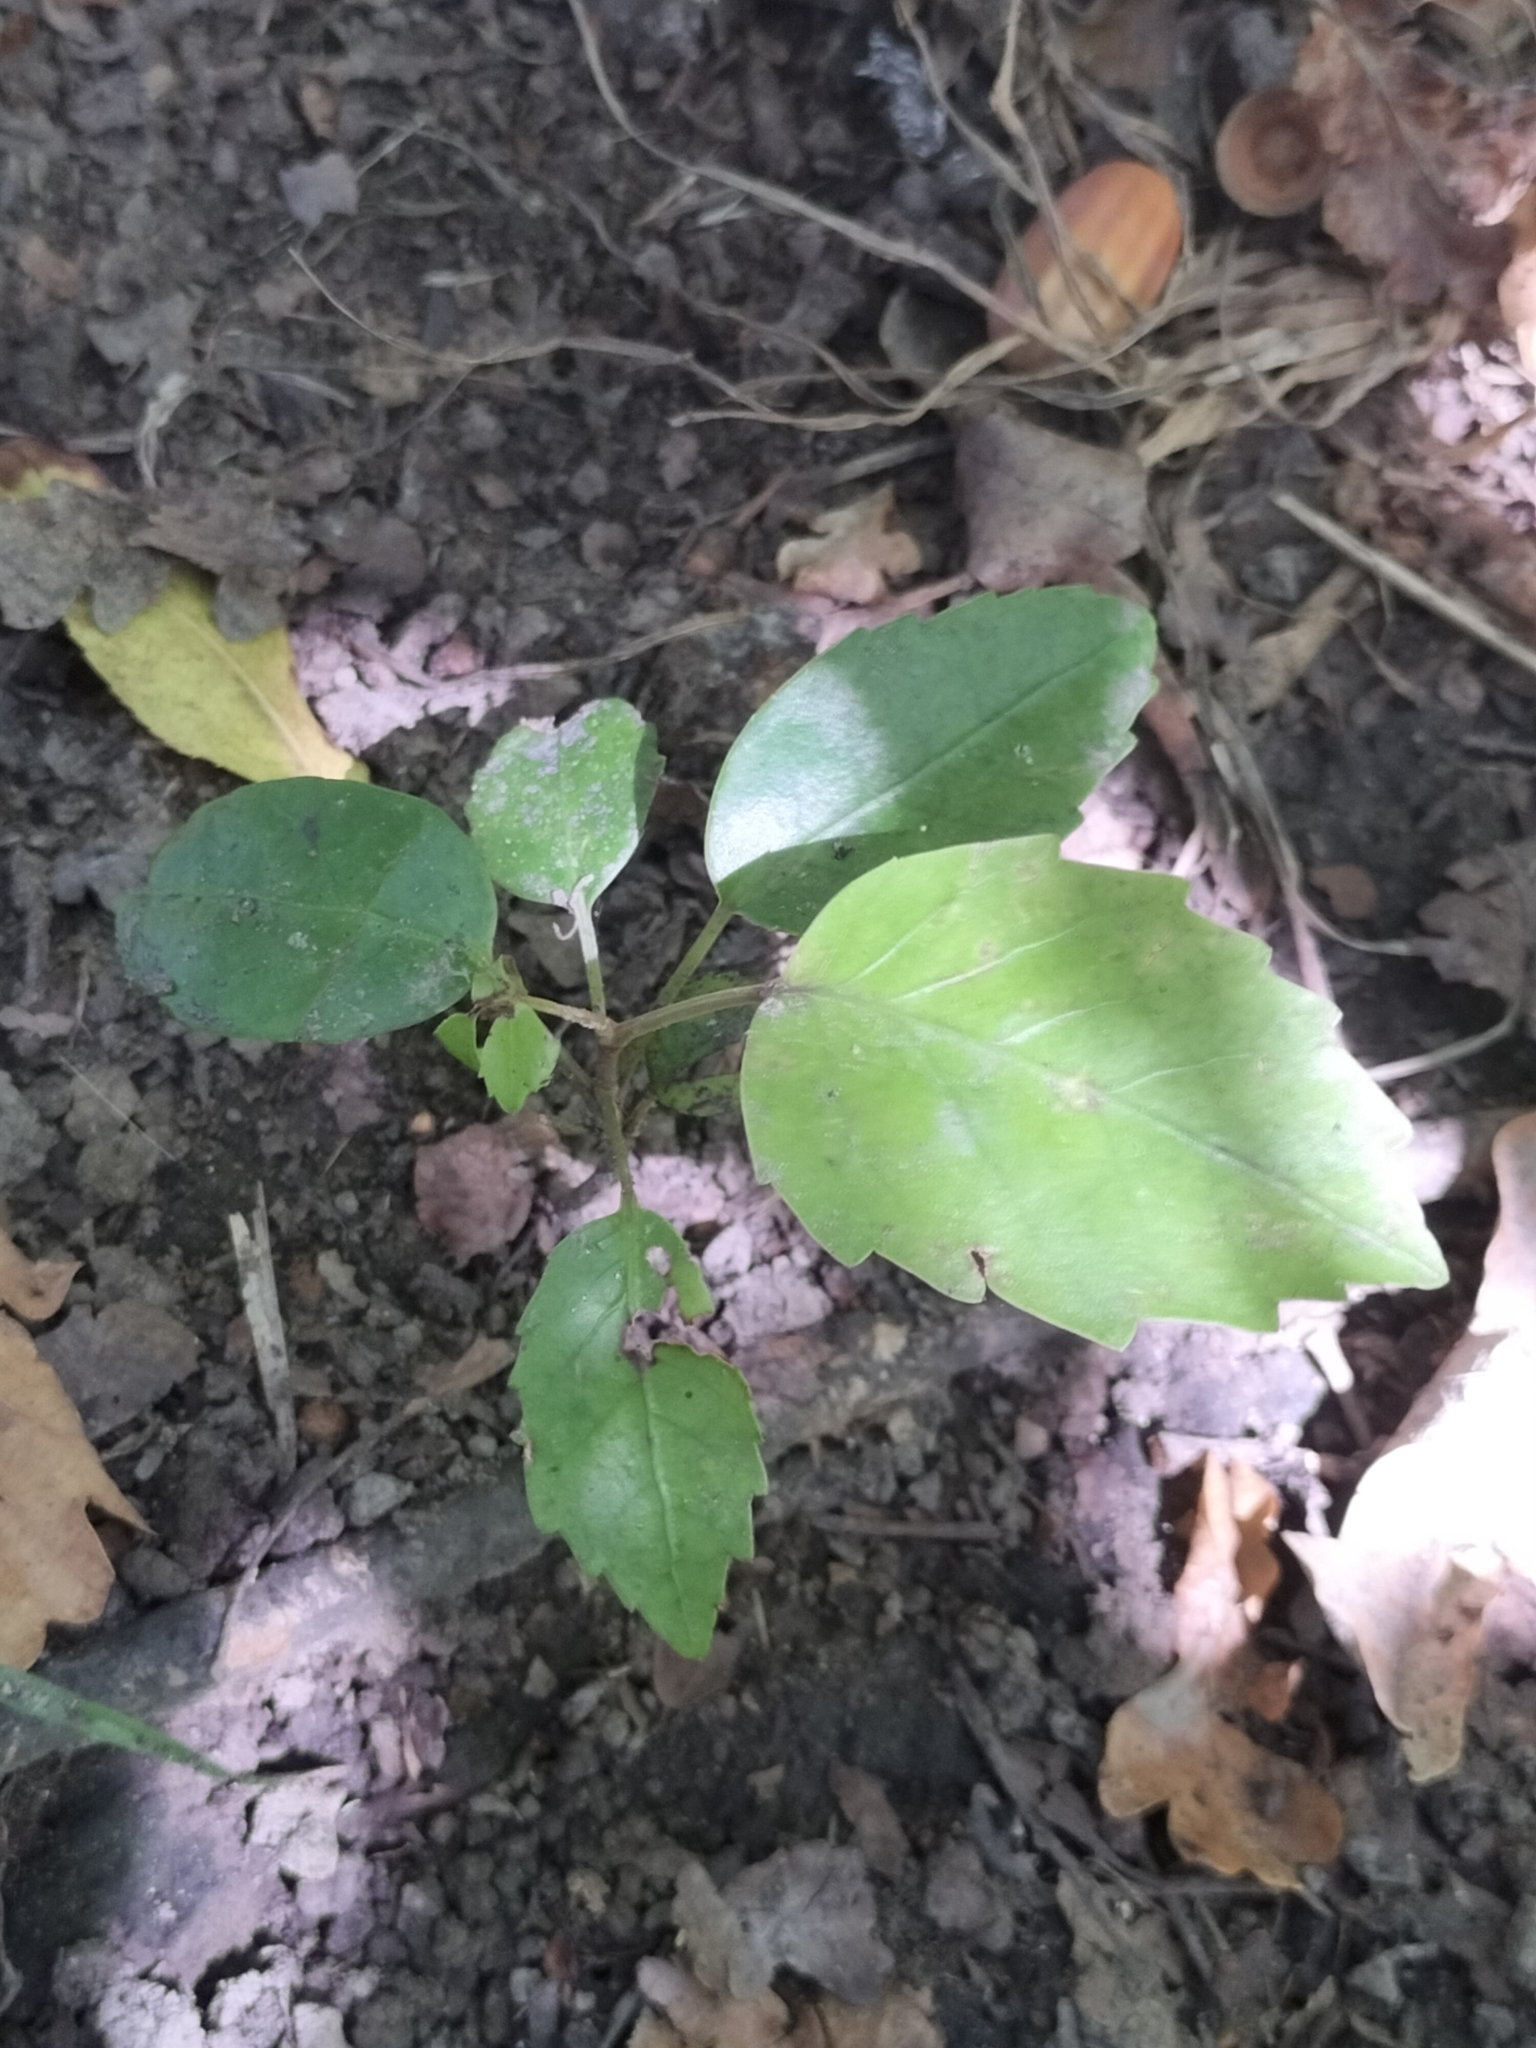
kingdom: Plantae
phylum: Tracheophyta
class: Magnoliopsida
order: Apiales
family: Araliaceae
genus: Neopanax
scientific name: Neopanax arboreus
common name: Five-fingers
